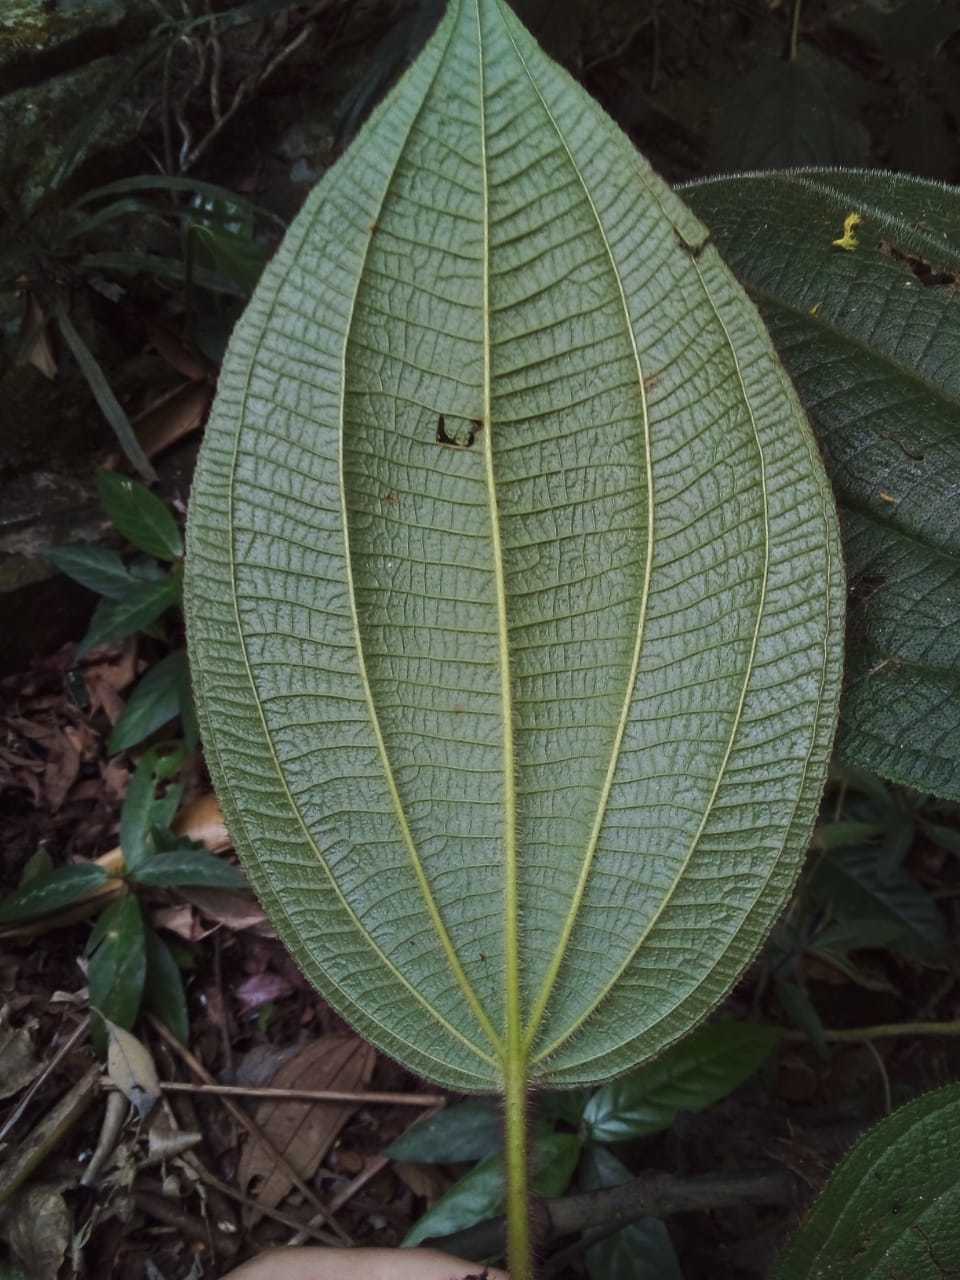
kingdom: Plantae
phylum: Tracheophyta
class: Magnoliopsida
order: Myrtales
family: Melastomataceae
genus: Miconia
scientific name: Miconia reversa
